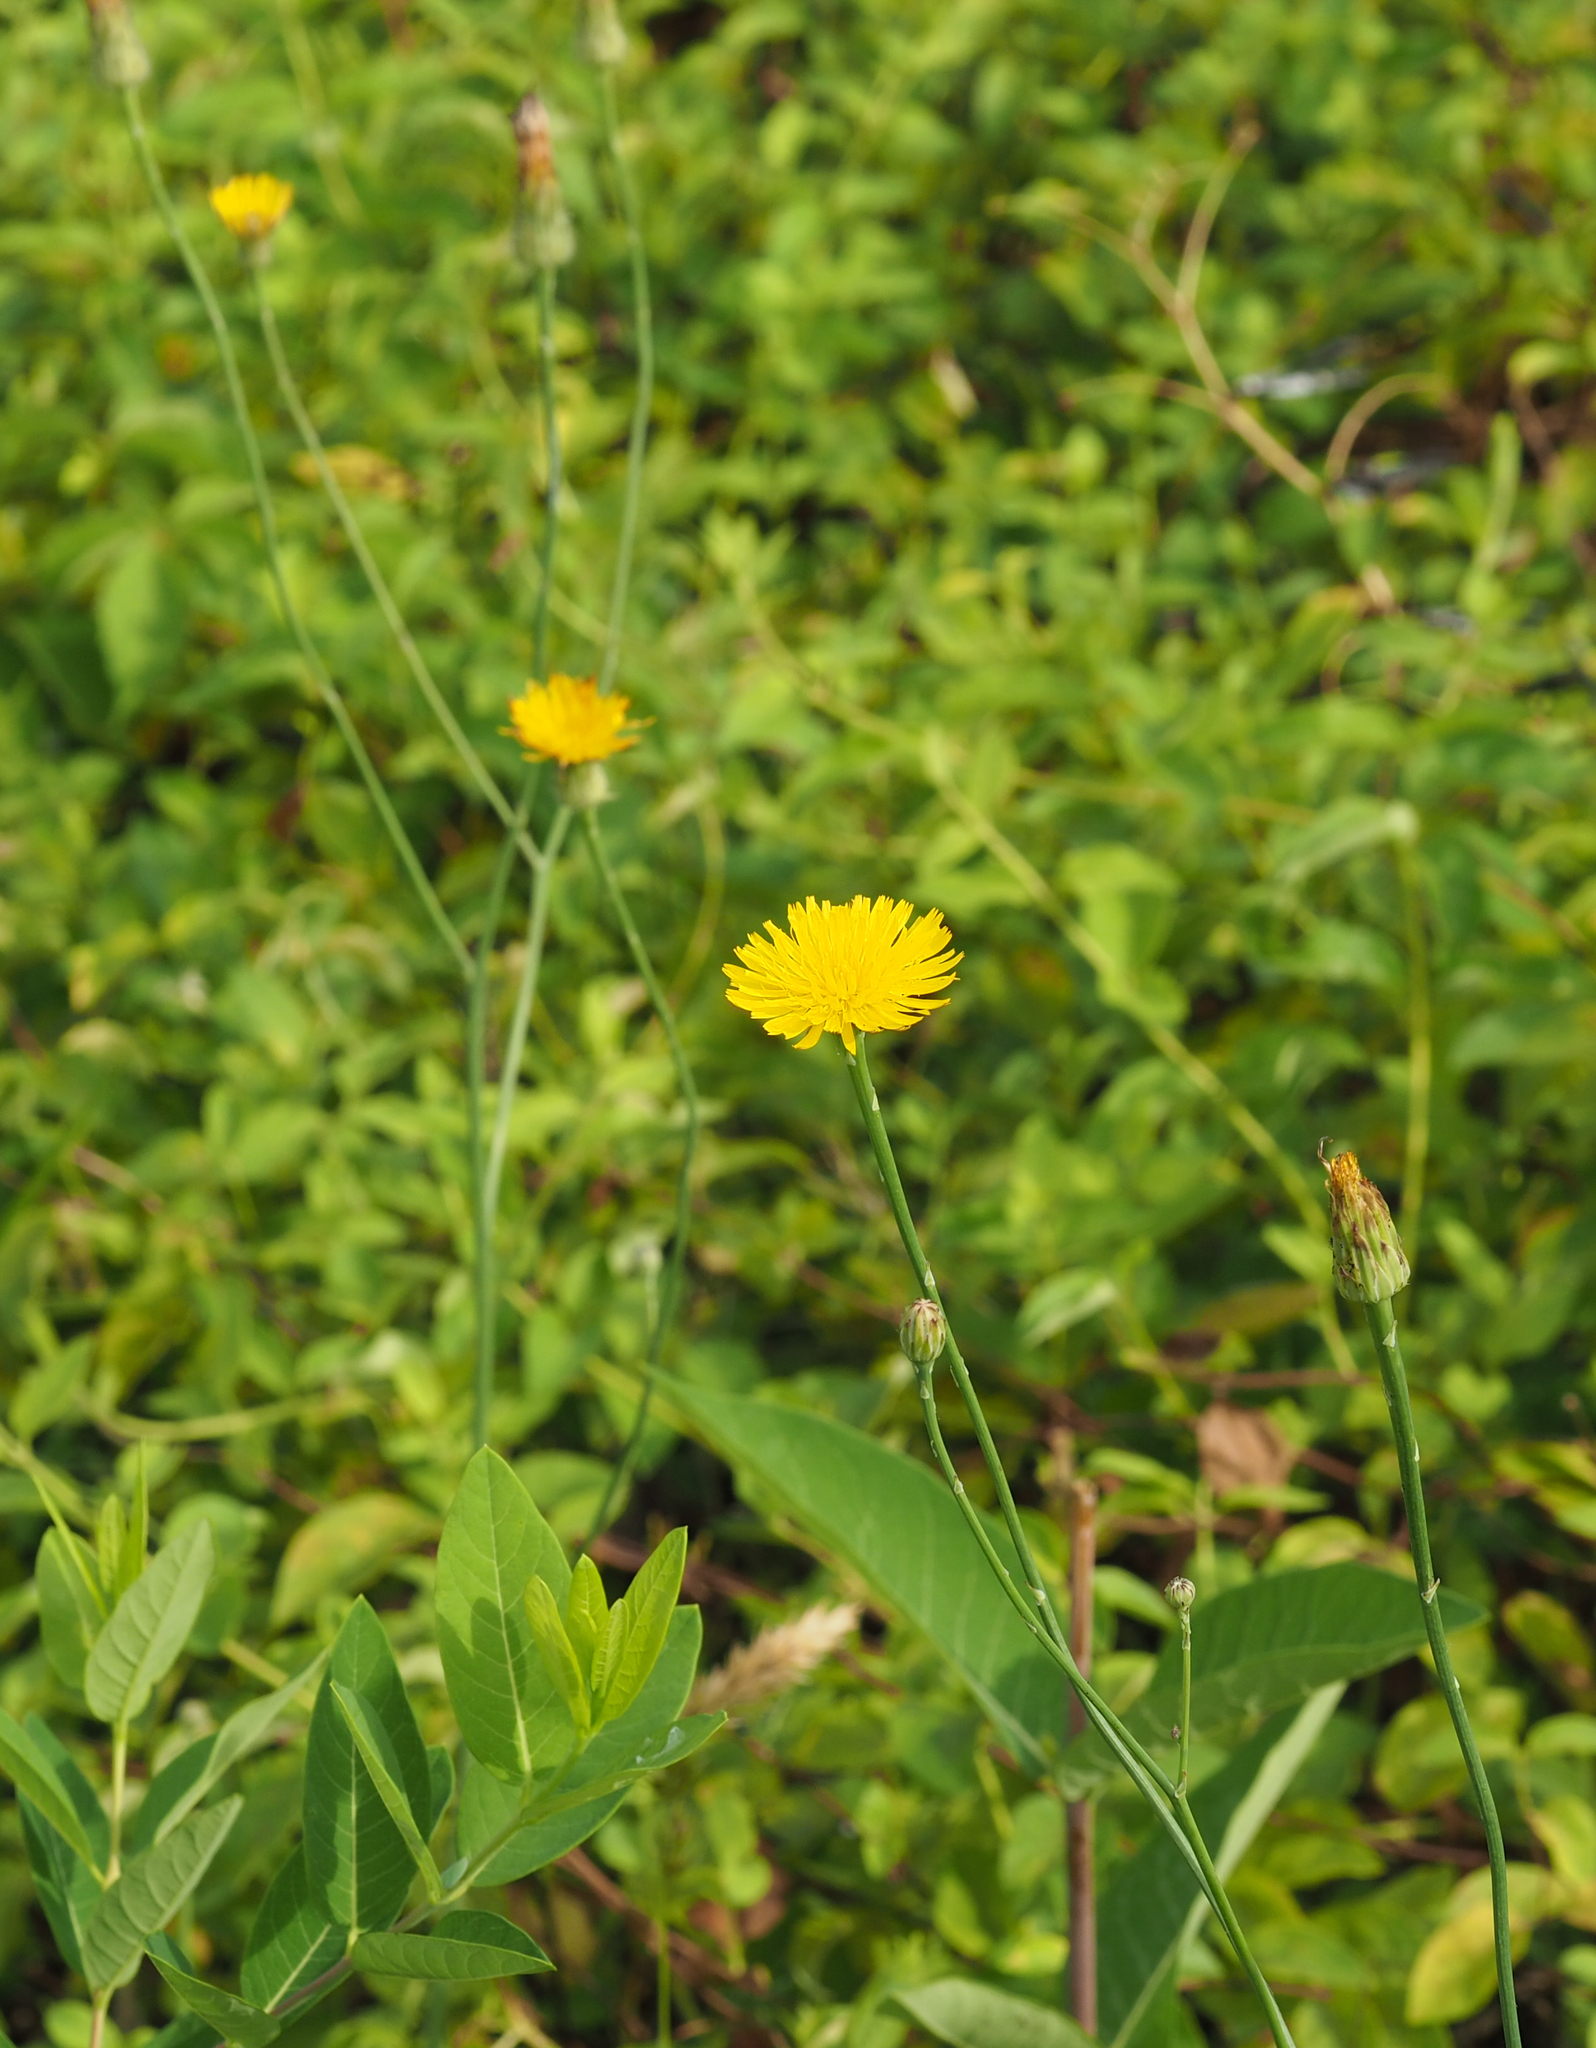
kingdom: Plantae
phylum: Tracheophyta
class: Magnoliopsida
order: Asterales
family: Asteraceae
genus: Hypochaeris
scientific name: Hypochaeris radicata
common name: Flatweed
